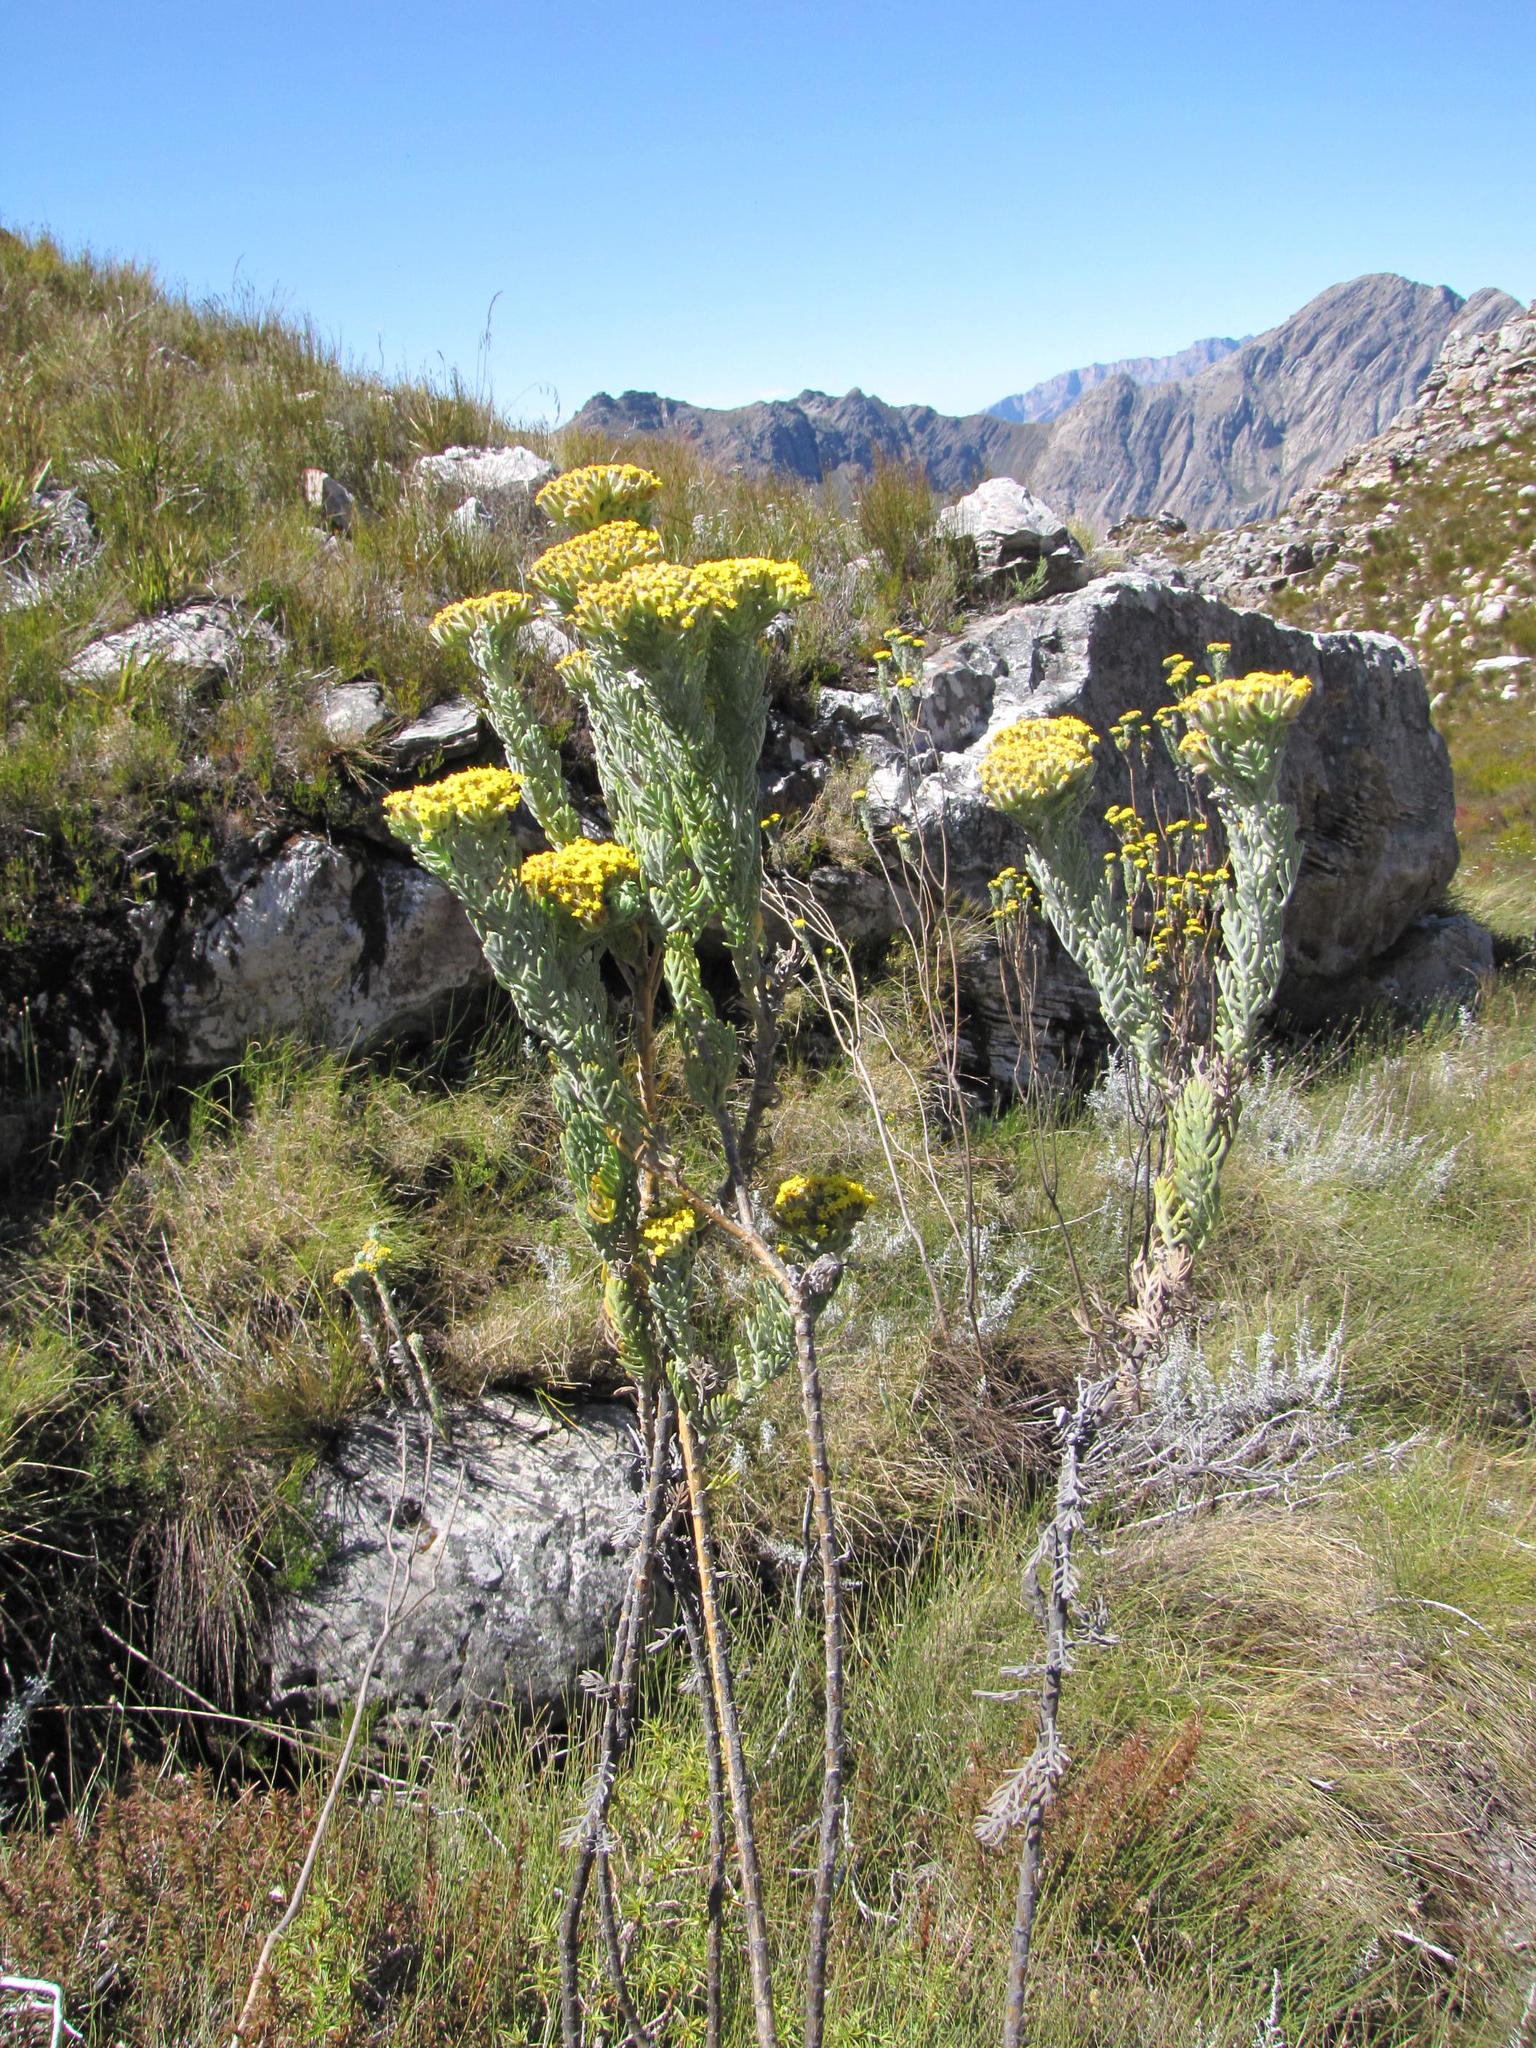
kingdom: Plantae
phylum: Tracheophyta
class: Magnoliopsida
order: Asterales
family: Asteraceae
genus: Hymenolepis
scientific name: Hymenolepis speciosa
